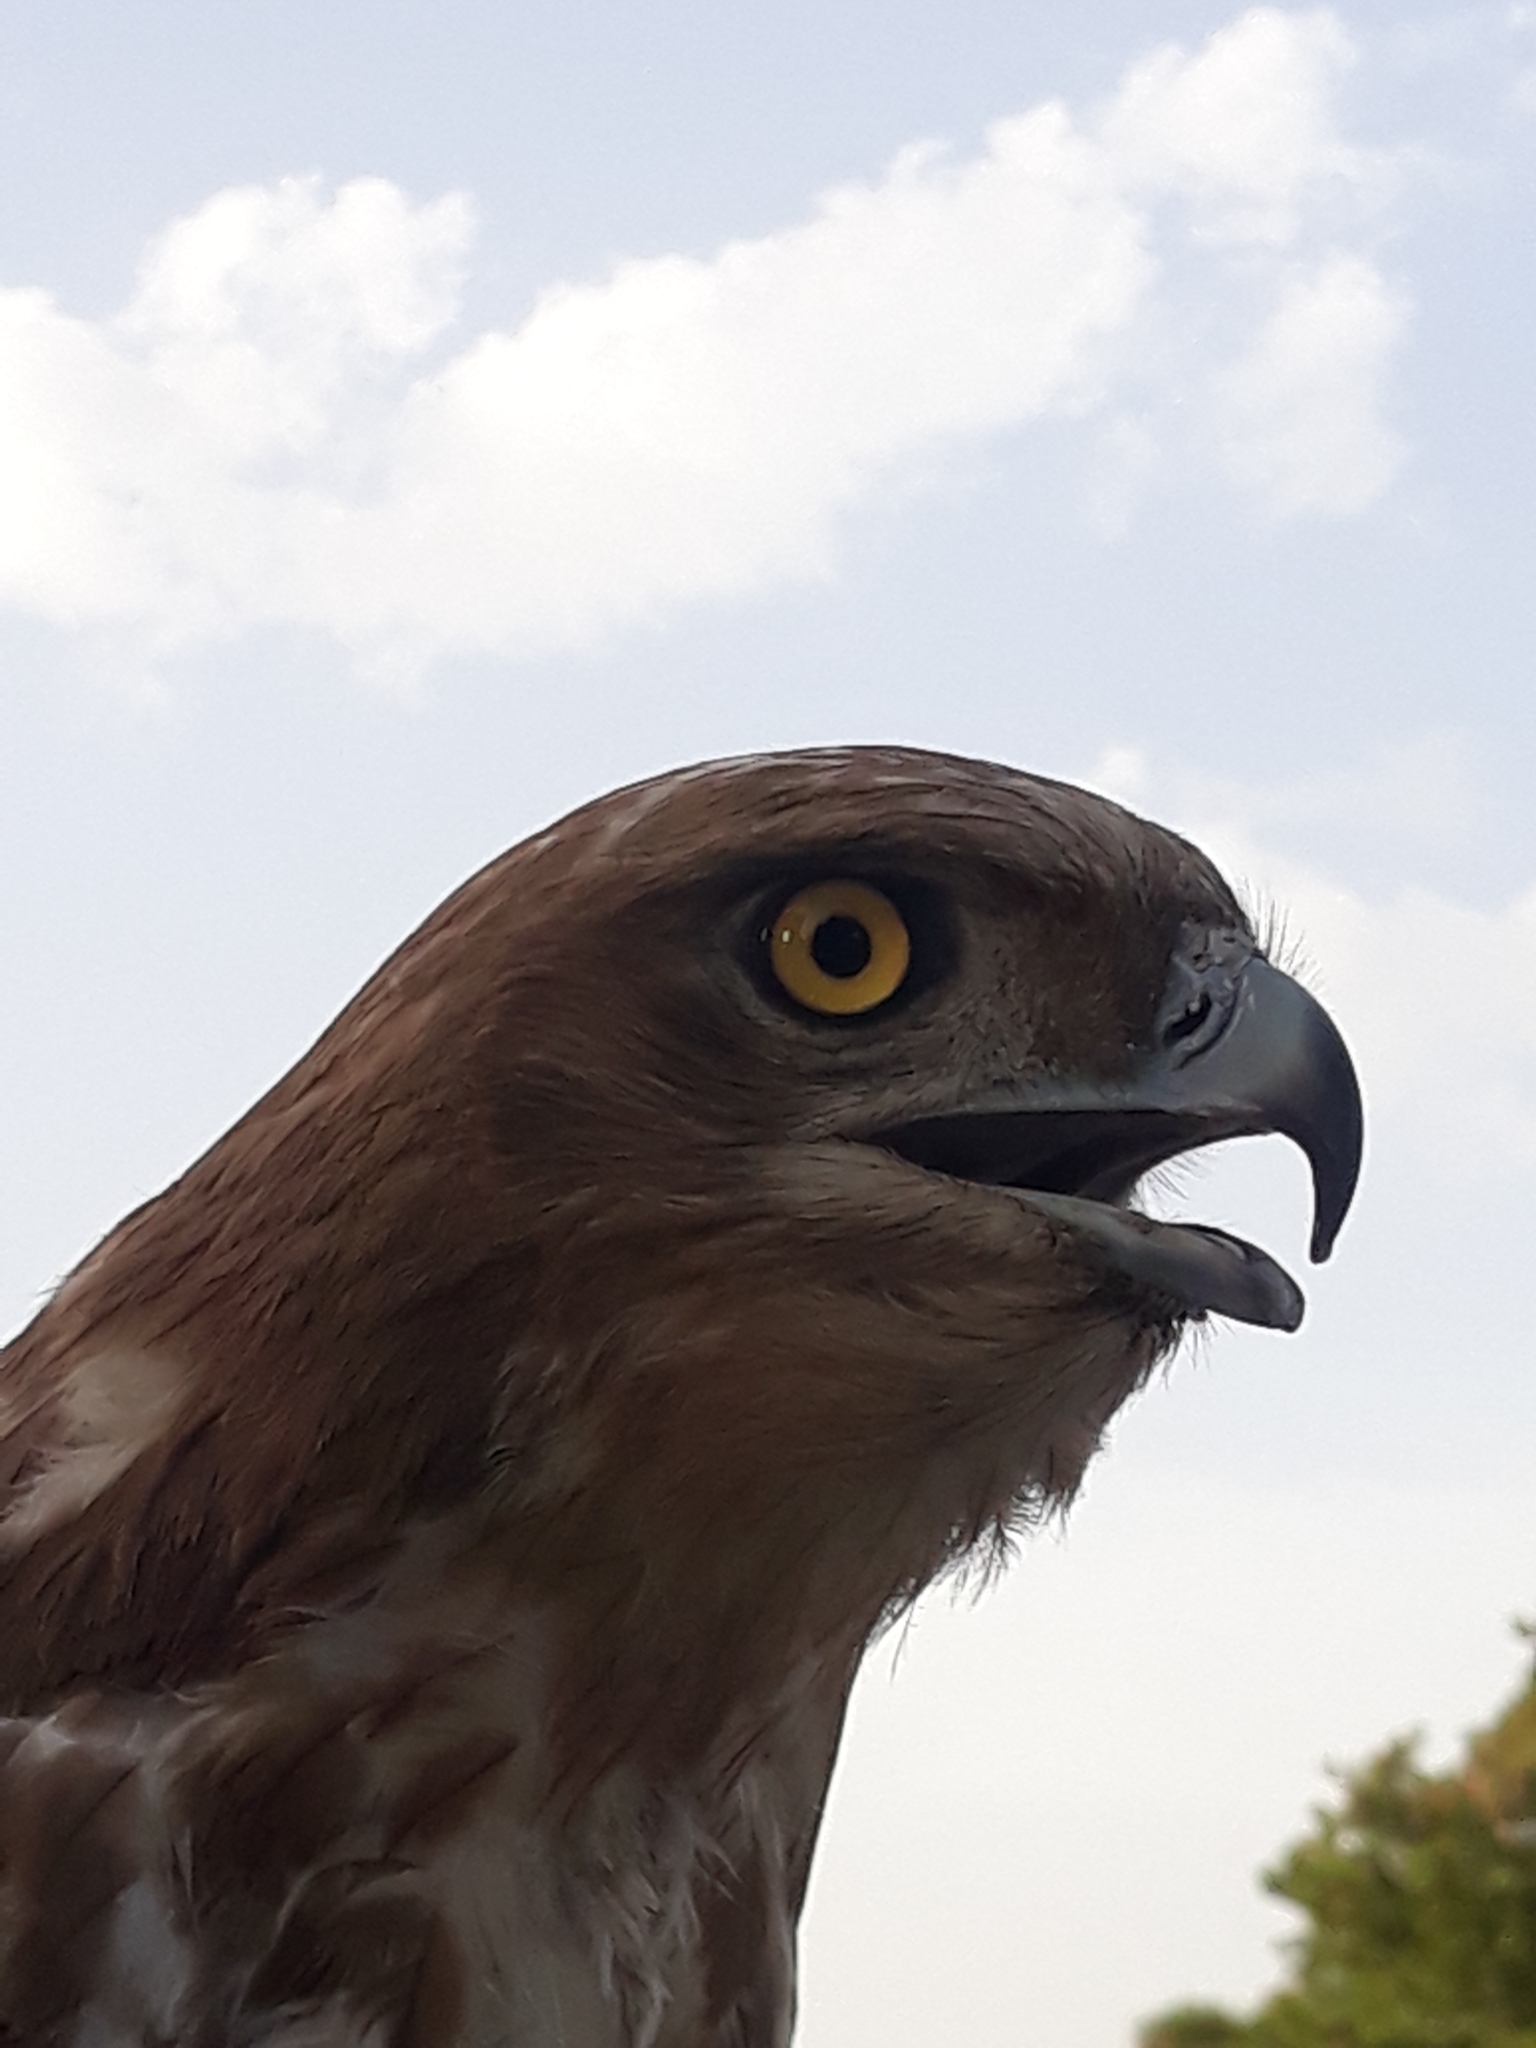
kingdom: Animalia
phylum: Chordata
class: Aves
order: Accipitriformes
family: Accipitridae
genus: Circaetus
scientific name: Circaetus gallicus
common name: Short-toed snake eagle
